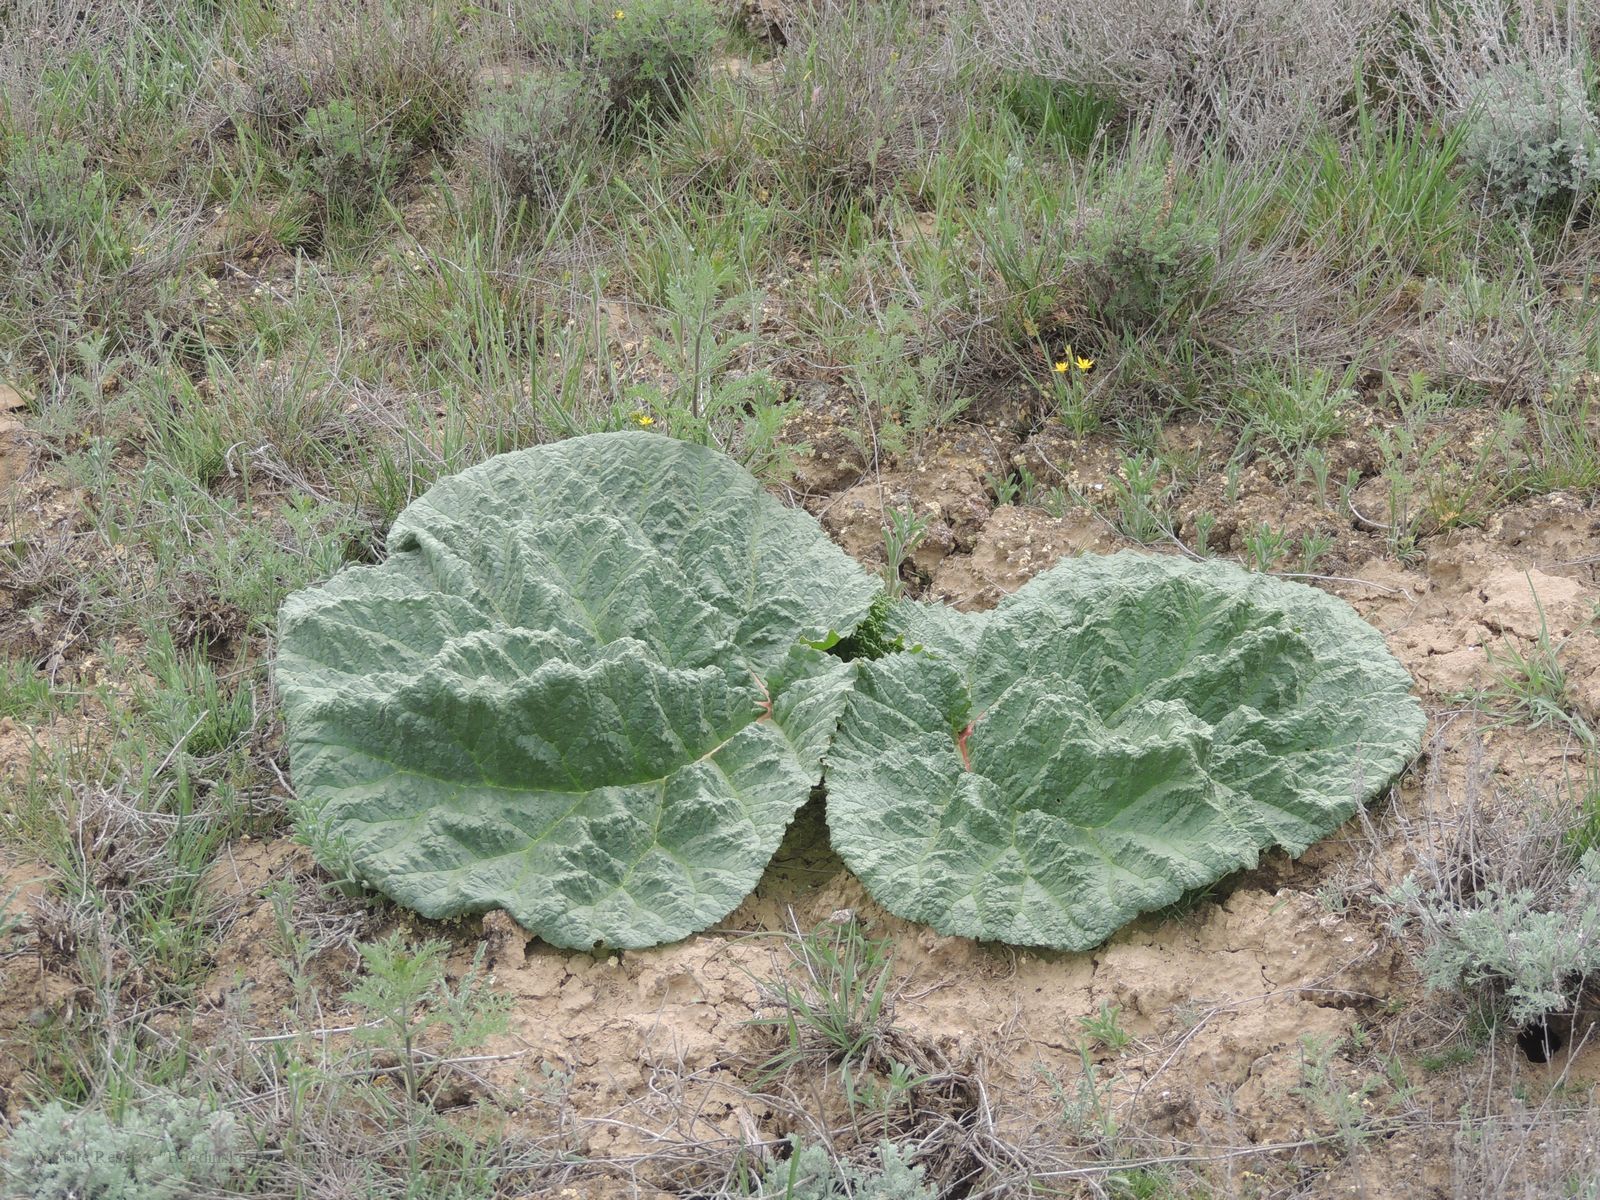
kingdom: Plantae
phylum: Tracheophyta
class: Magnoliopsida
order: Caryophyllales
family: Polygonaceae
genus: Rheum
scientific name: Rheum tataricum
